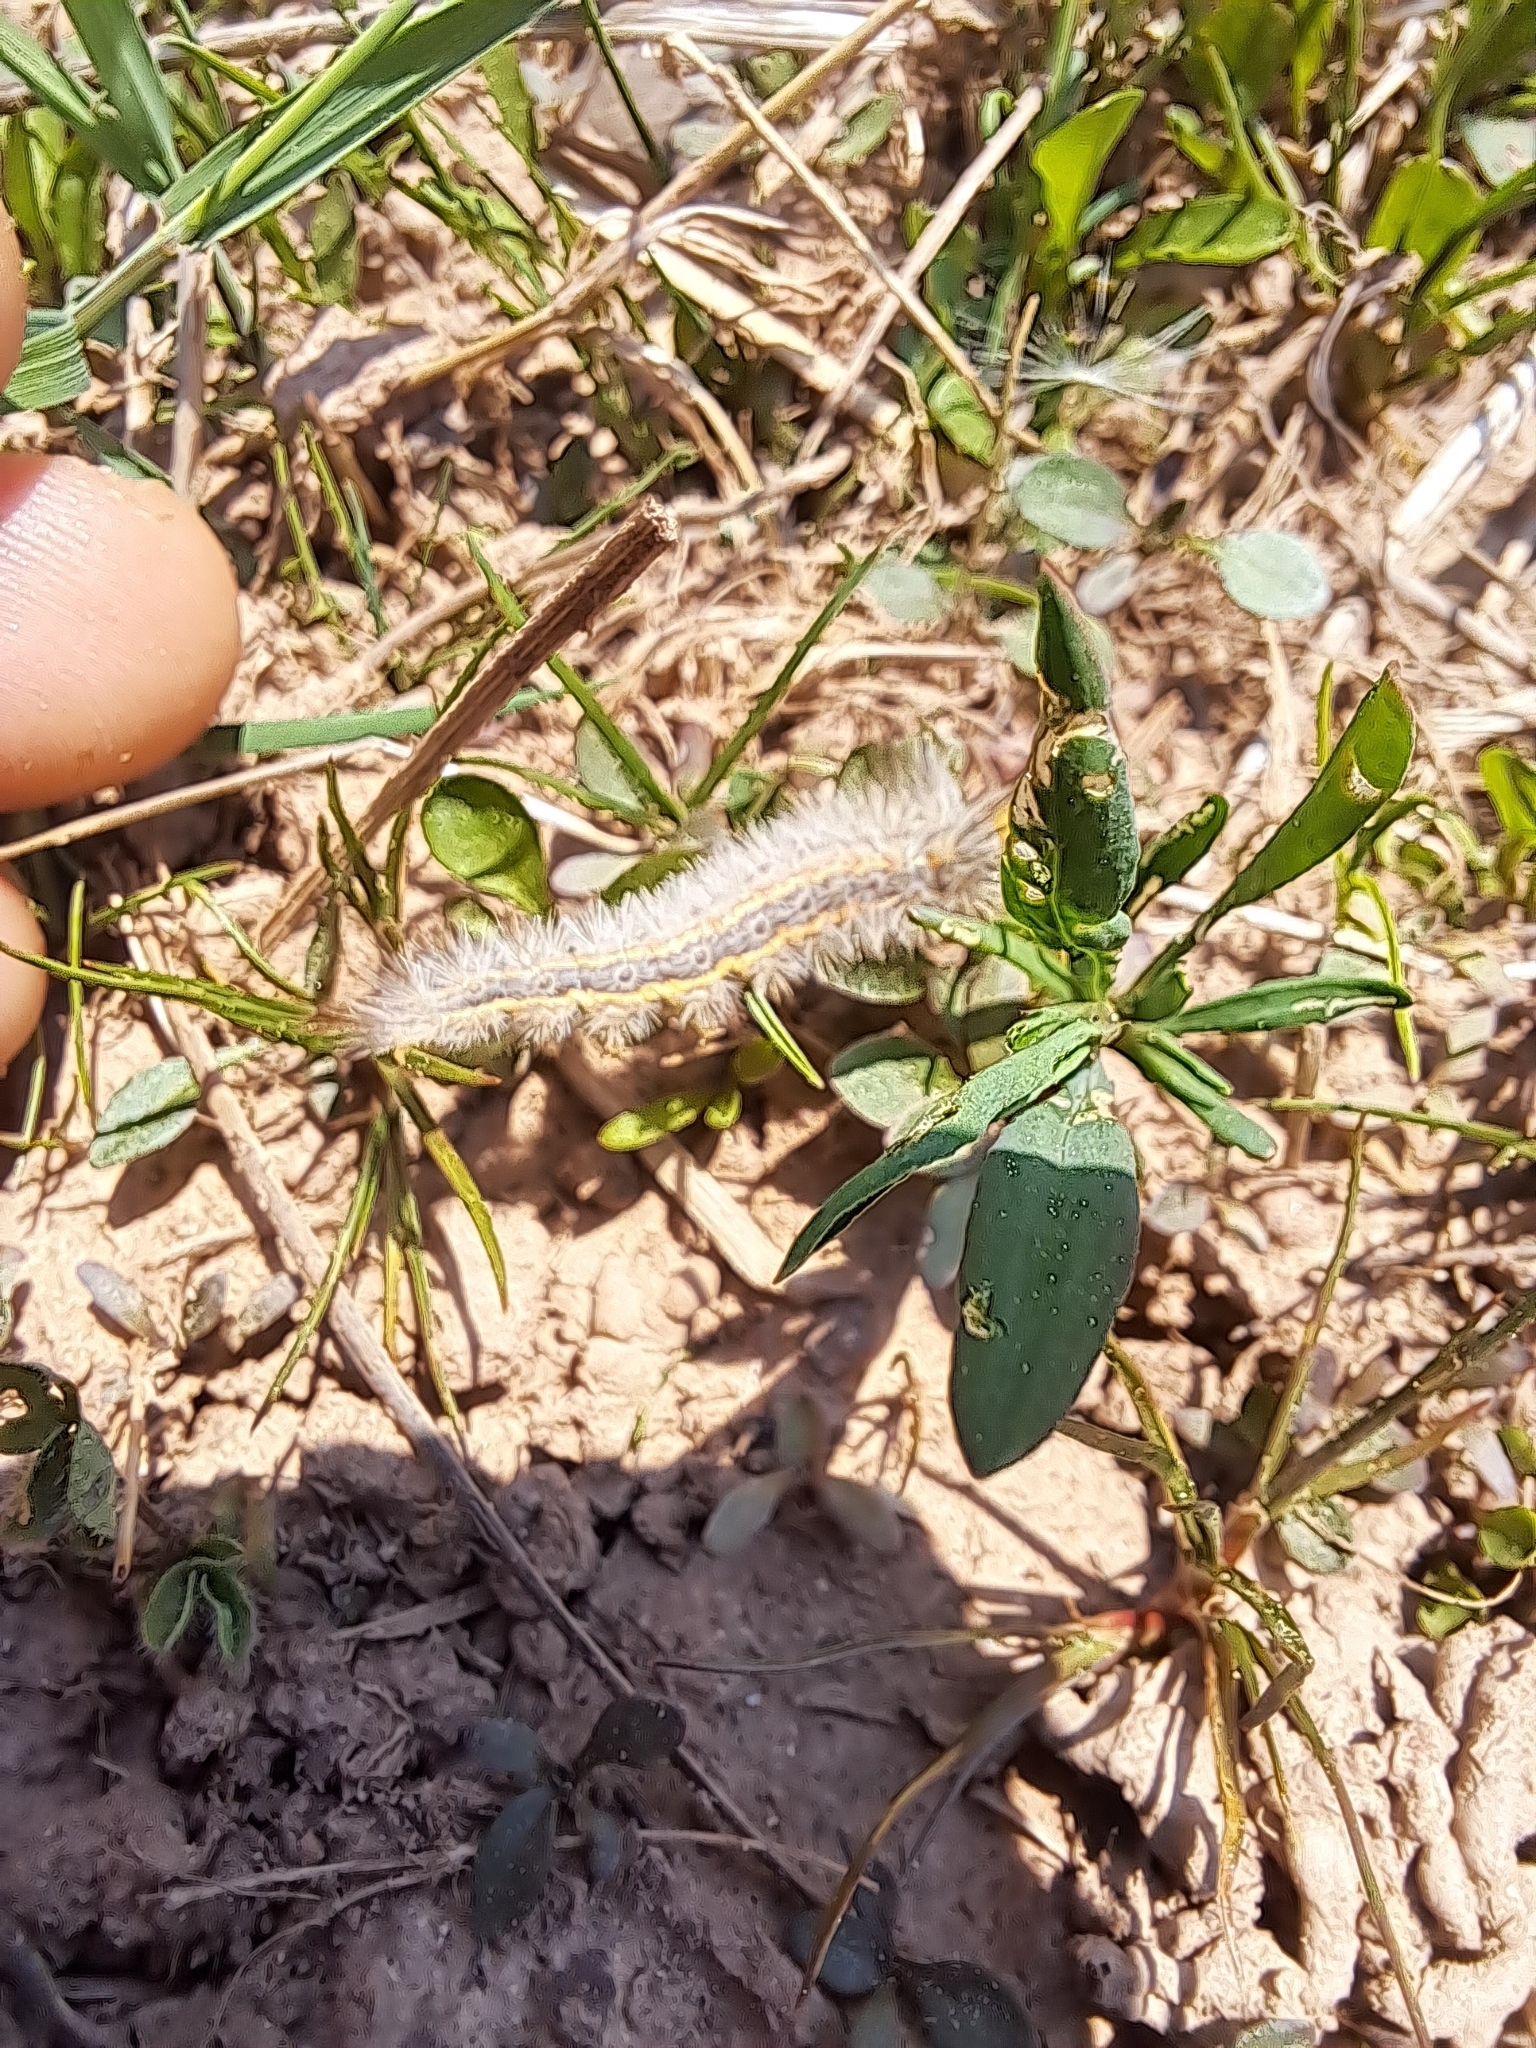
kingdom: Animalia
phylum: Arthropoda
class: Insecta
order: Lepidoptera
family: Erebidae
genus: Cisseps
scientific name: Cisseps fulvicollis
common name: Yellow-collared scape moth
